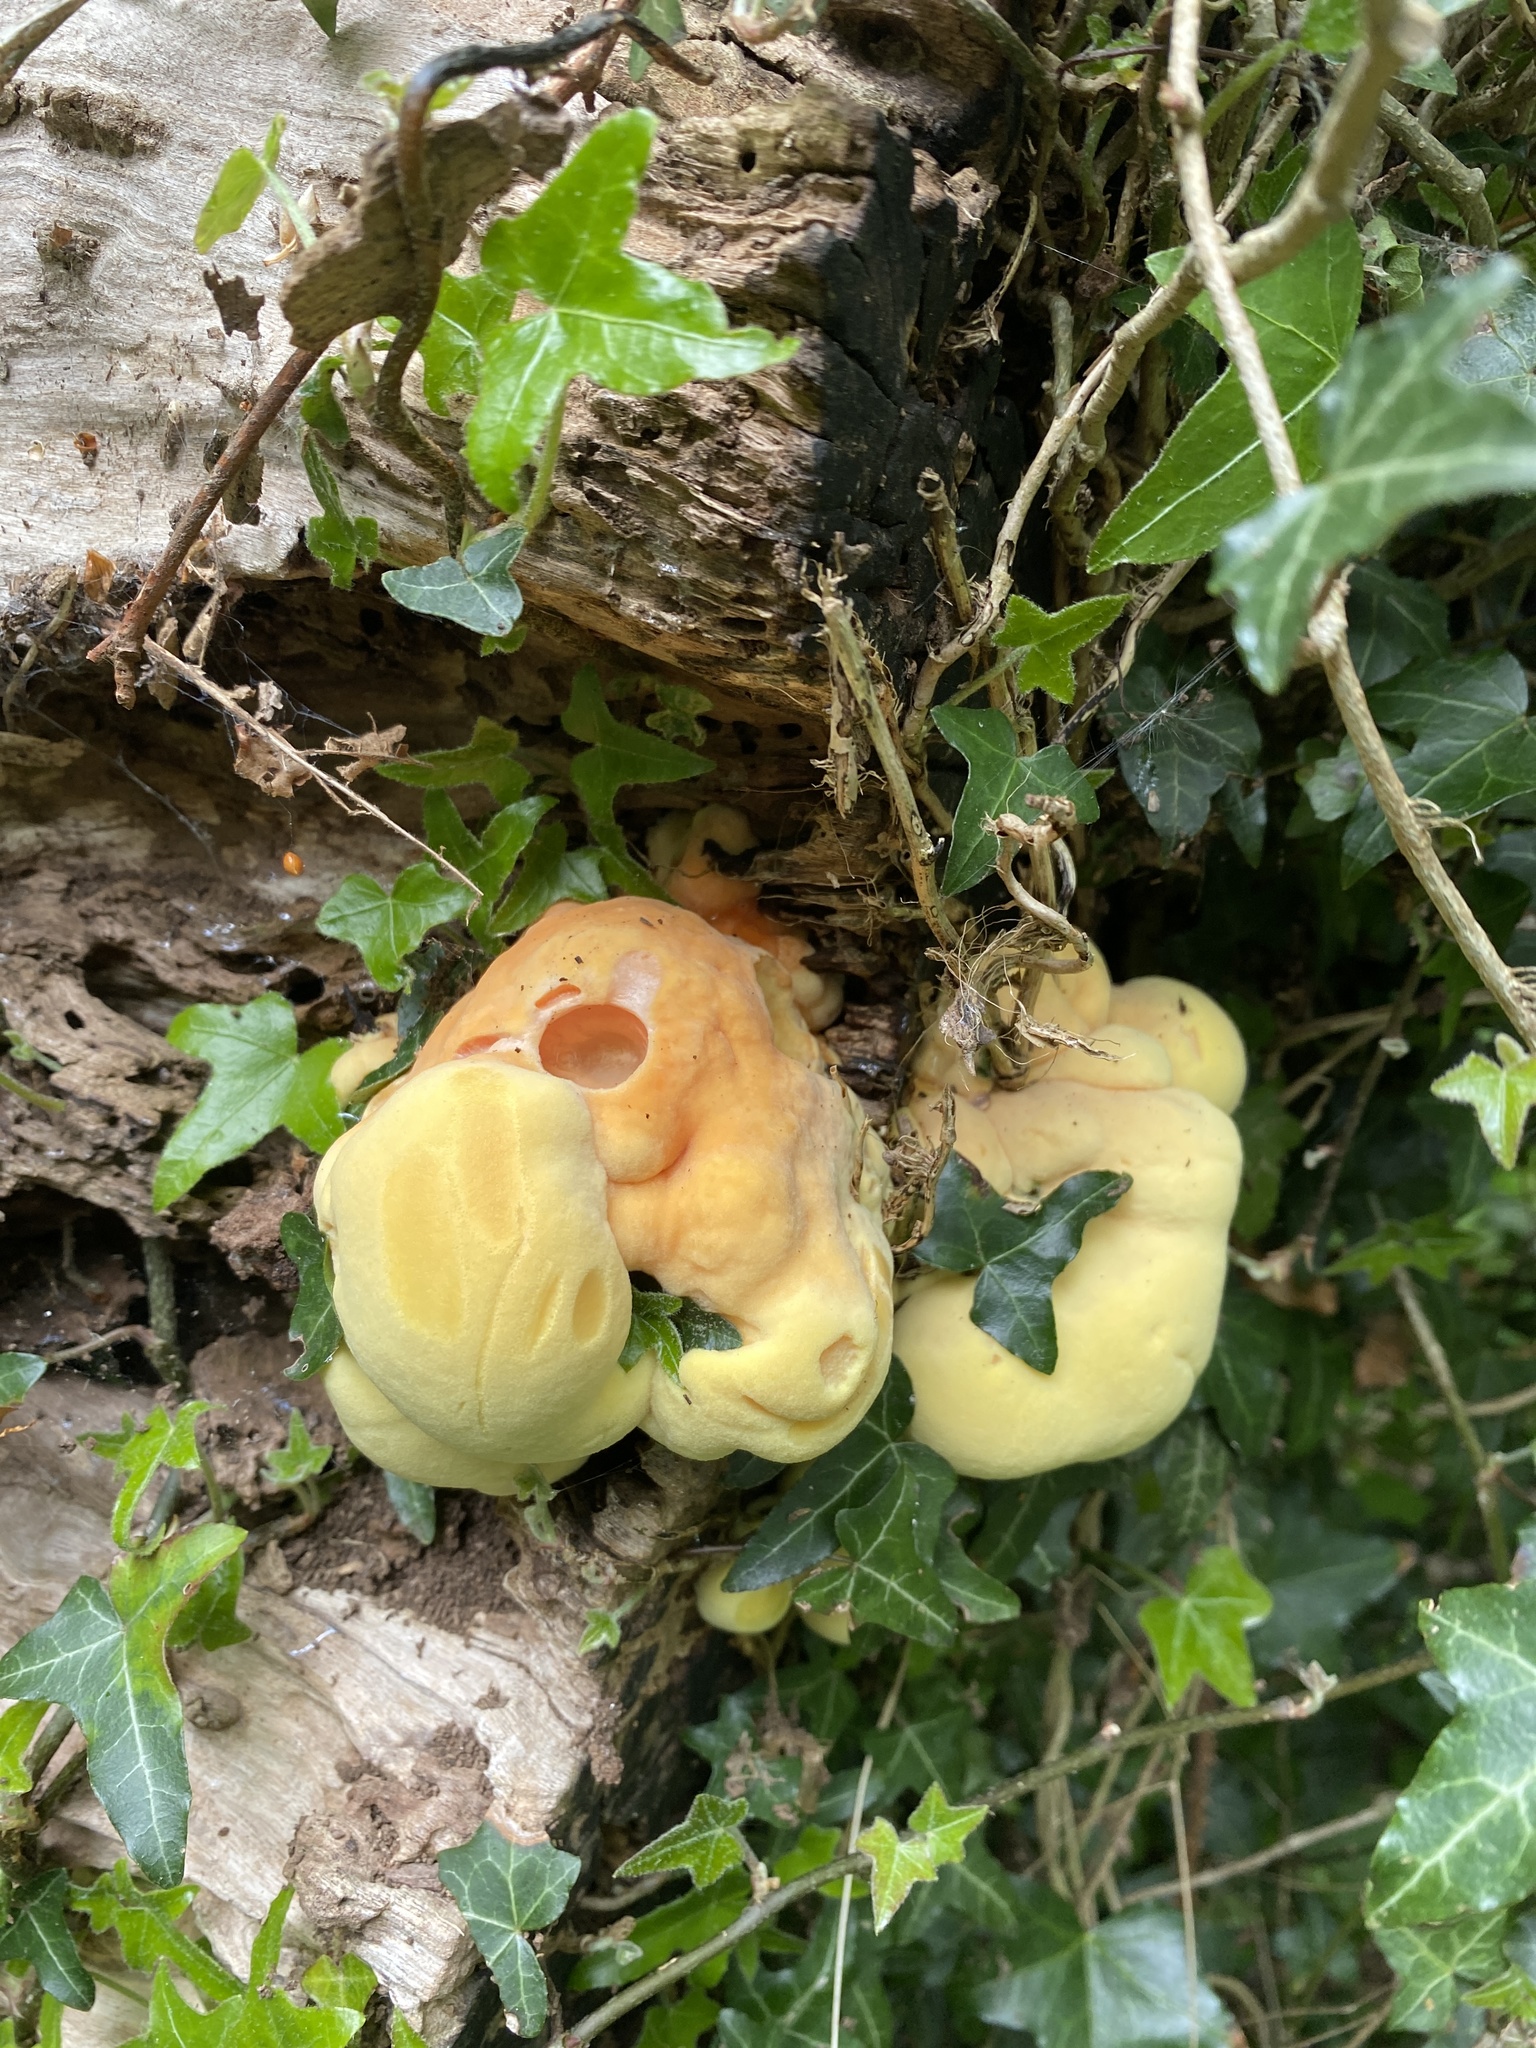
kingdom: Fungi
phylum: Basidiomycota
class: Agaricomycetes
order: Polyporales
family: Laetiporaceae
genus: Laetiporus
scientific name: Laetiporus sulphureus
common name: Chicken of the woods
